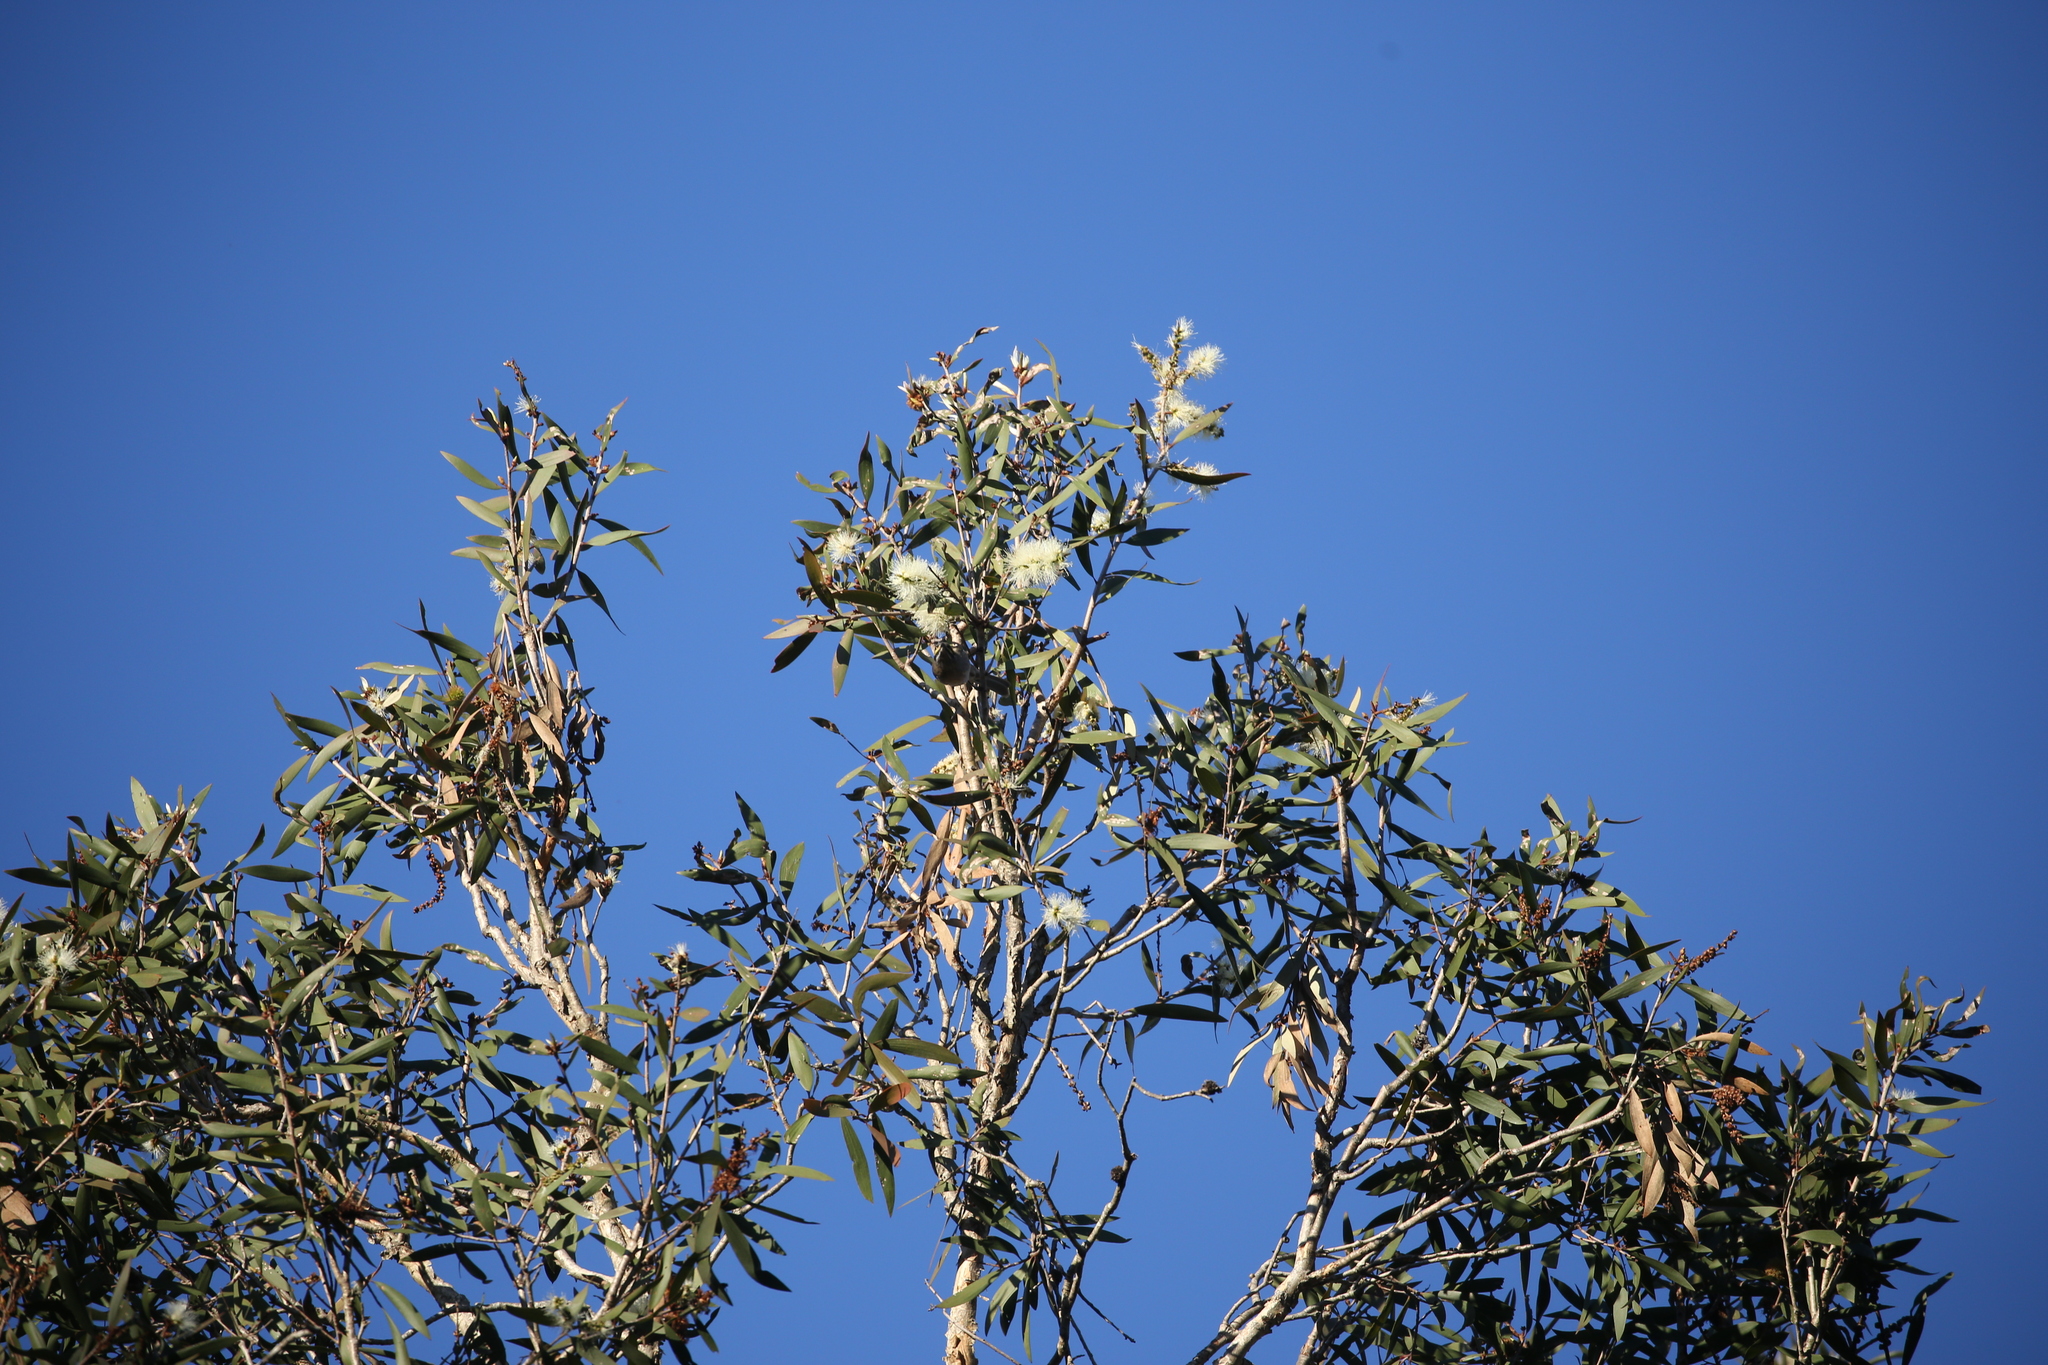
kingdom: Animalia
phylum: Chordata
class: Aves
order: Passeriformes
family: Meliphagidae
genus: Caligavis
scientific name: Caligavis chrysops
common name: Yellow-faced honeyeater
